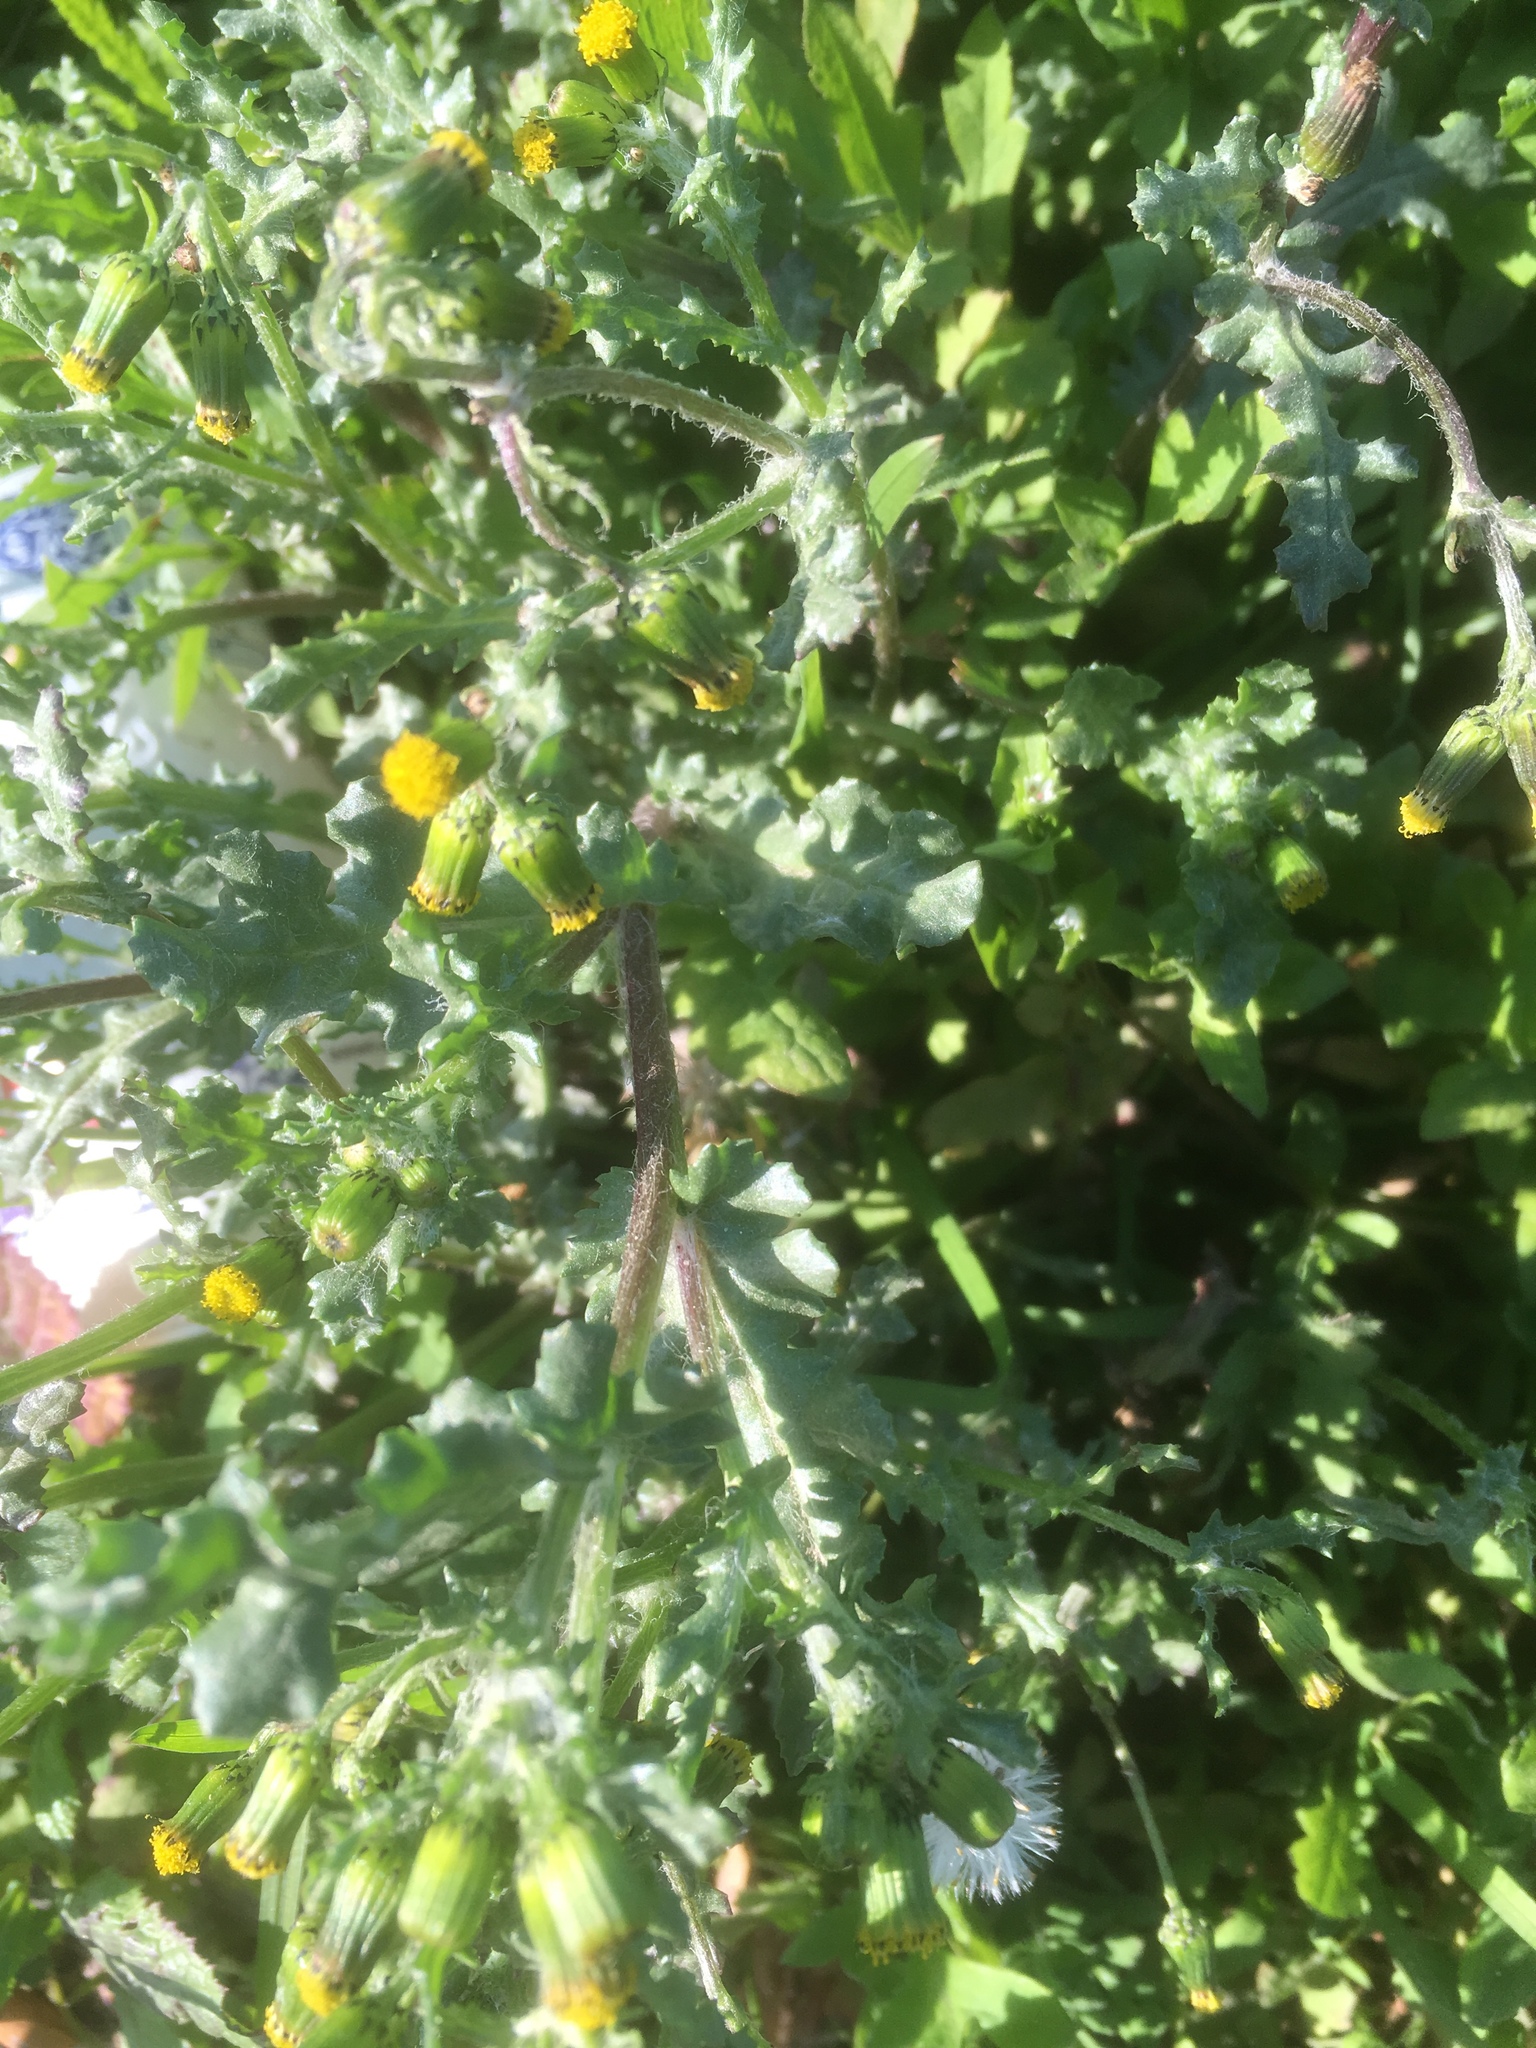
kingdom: Plantae
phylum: Tracheophyta
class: Magnoliopsida
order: Asterales
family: Asteraceae
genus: Senecio
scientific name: Senecio vulgaris
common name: Old-man-in-the-spring
